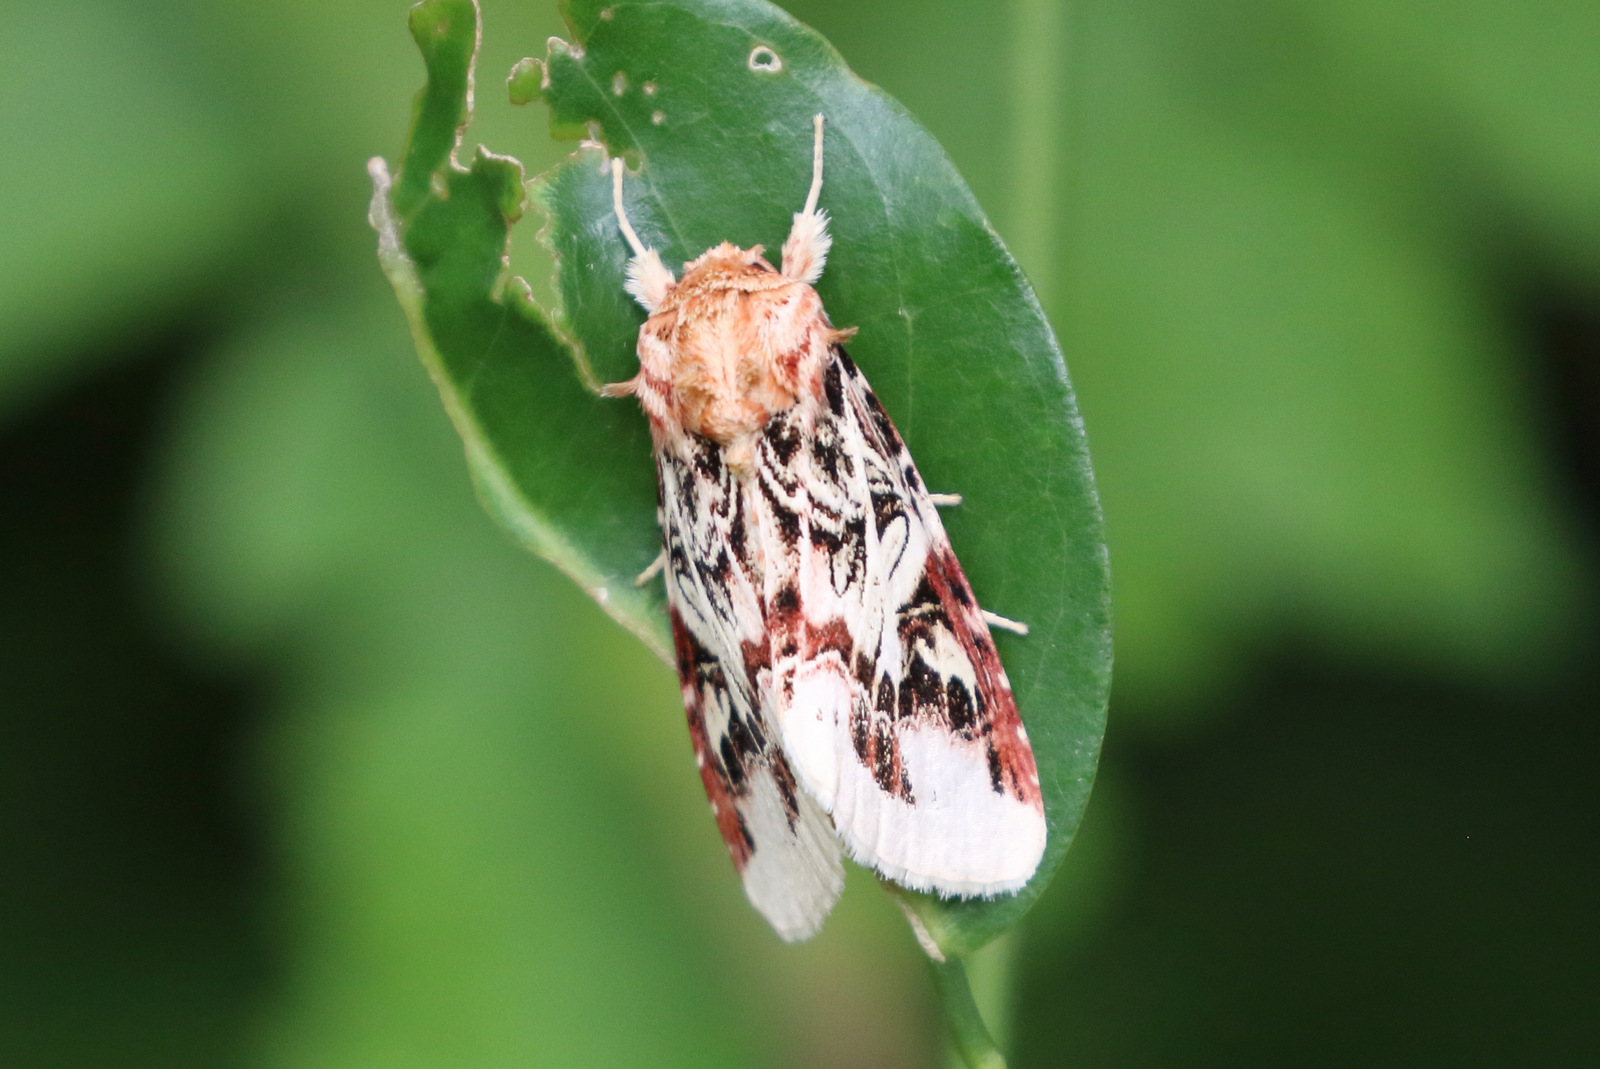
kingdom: Animalia
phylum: Arthropoda
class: Insecta
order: Lepidoptera
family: Noctuidae
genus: Spodoptera
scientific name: Spodoptera picta
